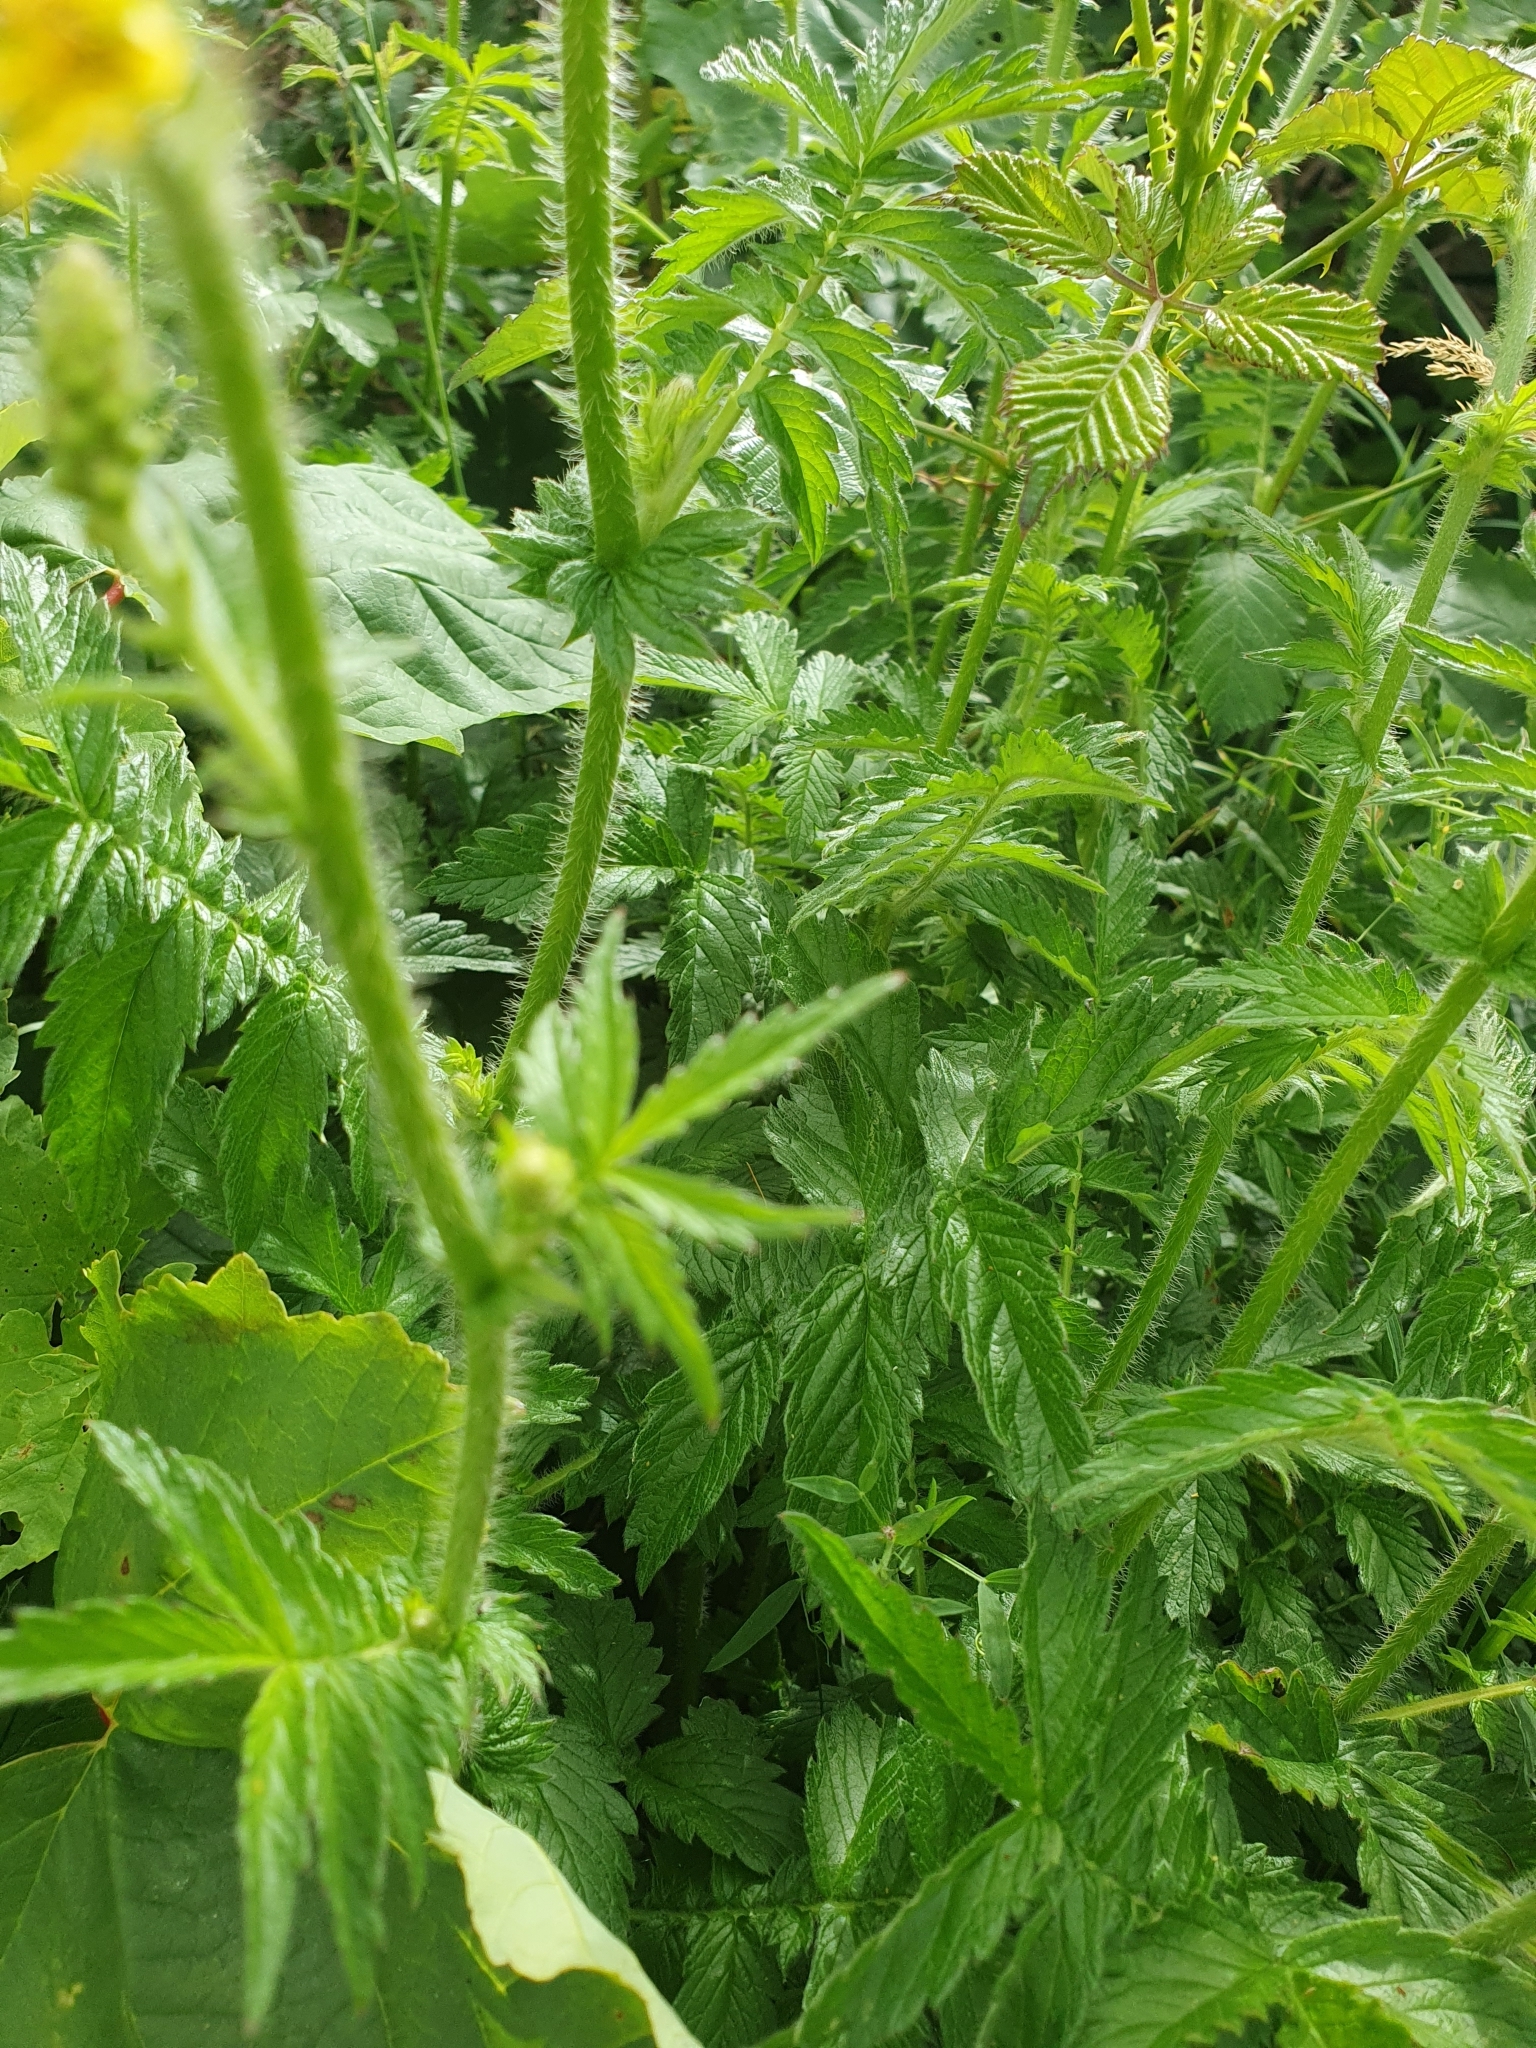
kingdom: Plantae
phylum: Tracheophyta
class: Magnoliopsida
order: Rosales
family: Rosaceae
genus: Agrimonia
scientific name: Agrimonia eupatoria
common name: Agrimony
